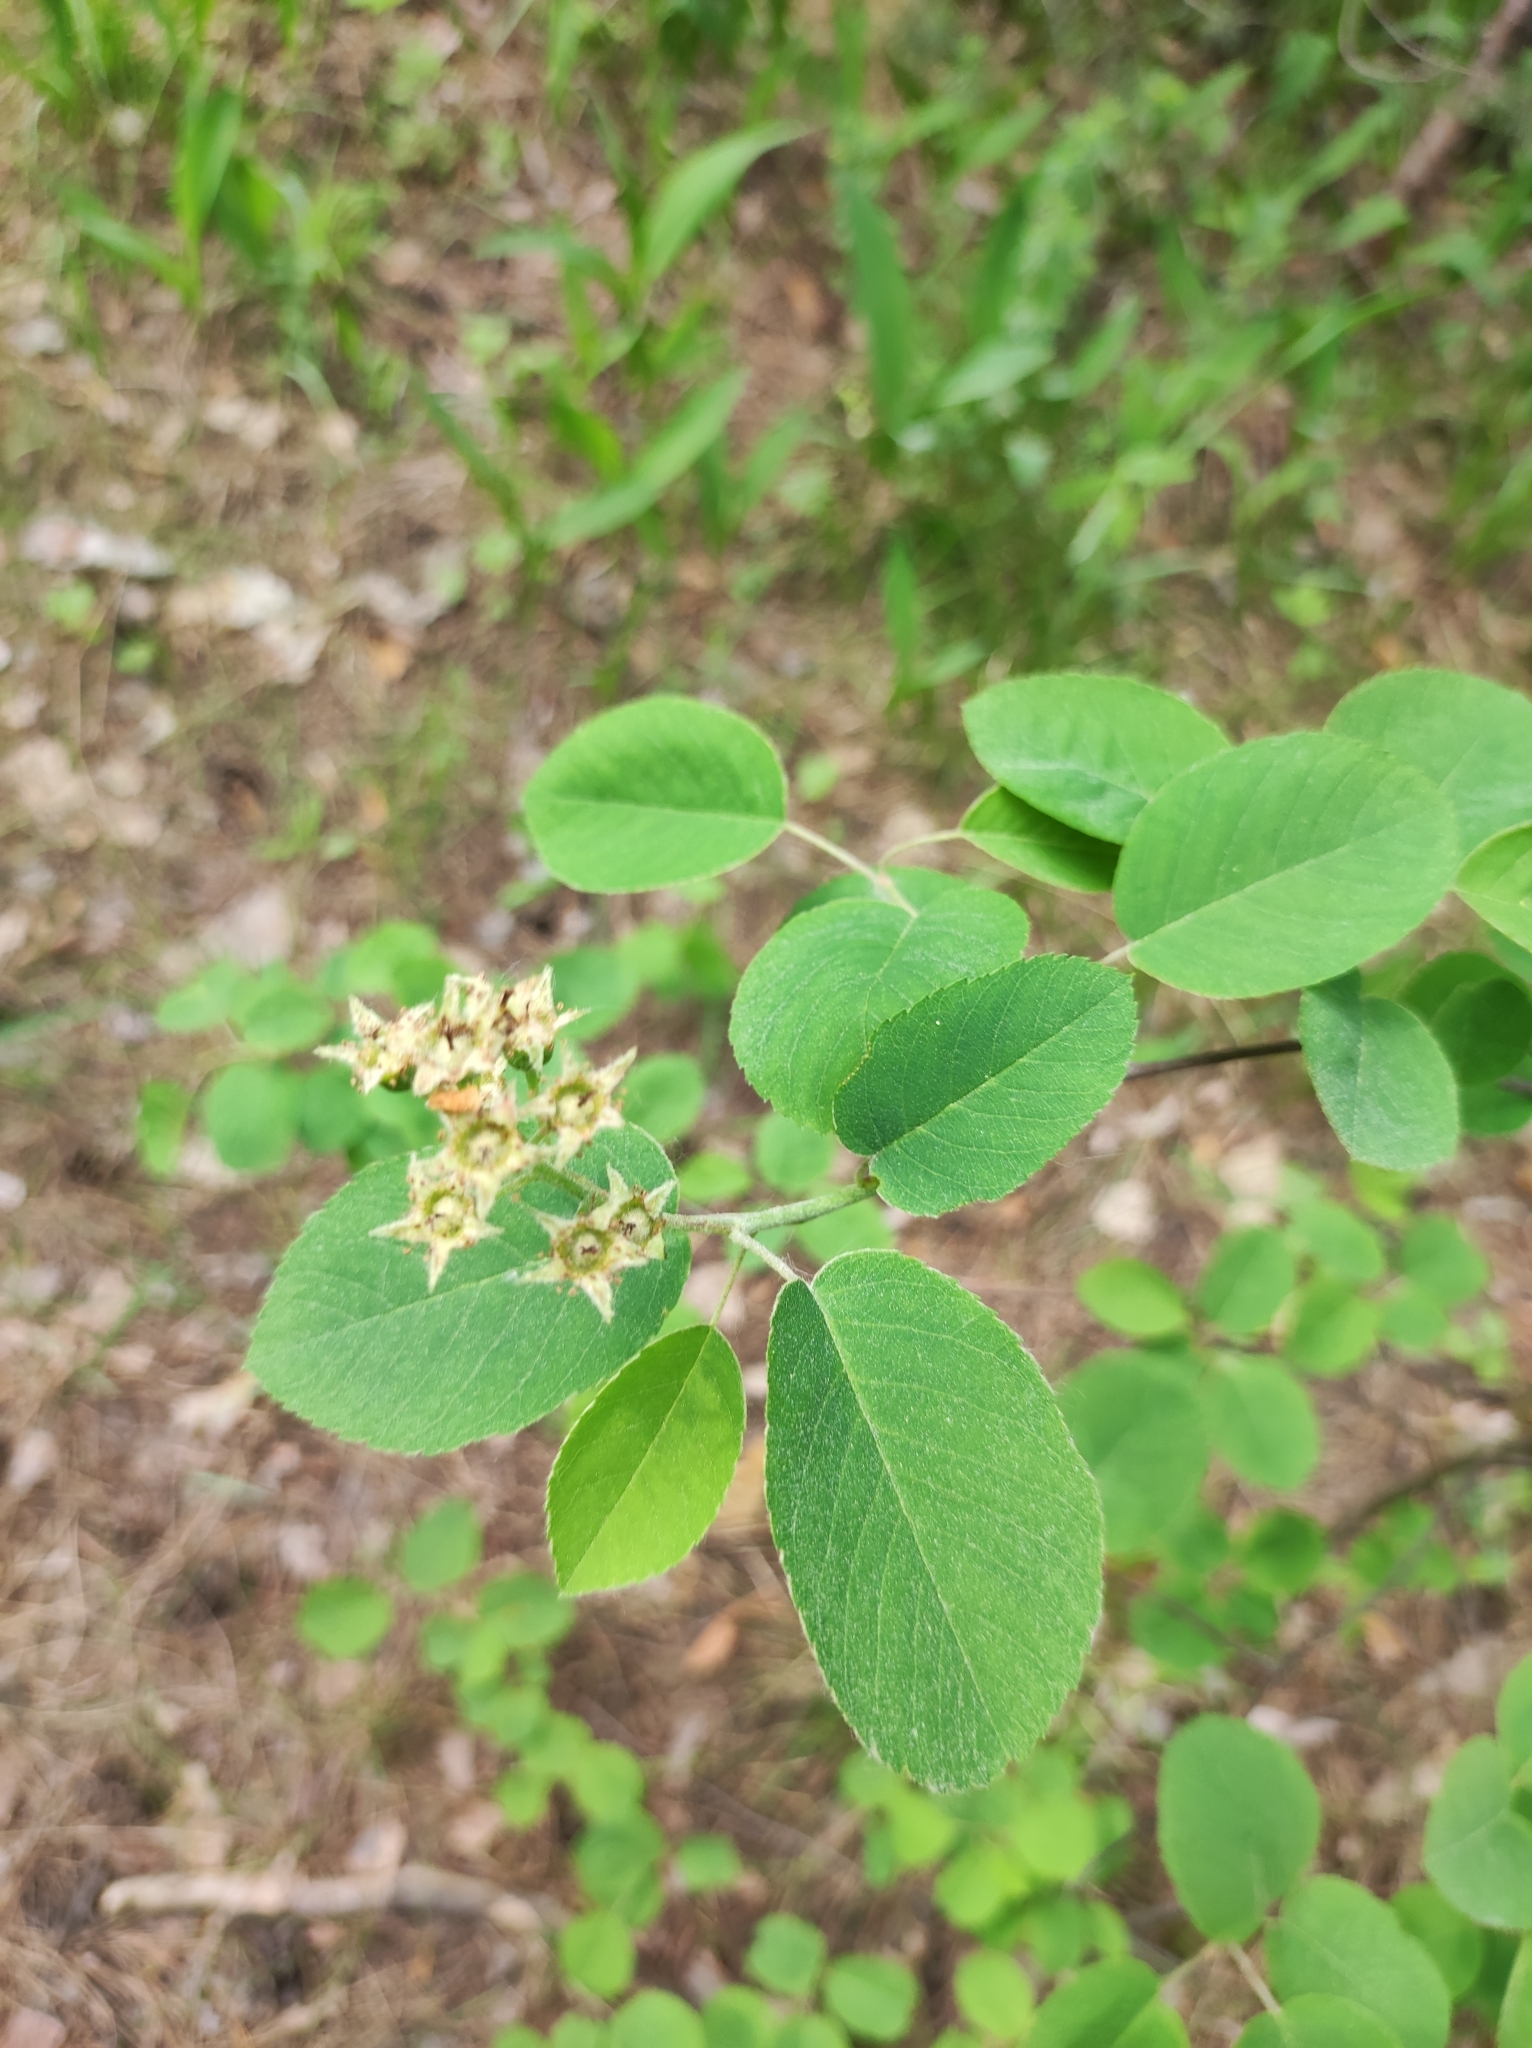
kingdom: Plantae
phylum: Tracheophyta
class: Magnoliopsida
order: Rosales
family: Rosaceae
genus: Amelanchier
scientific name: Amelanchier
